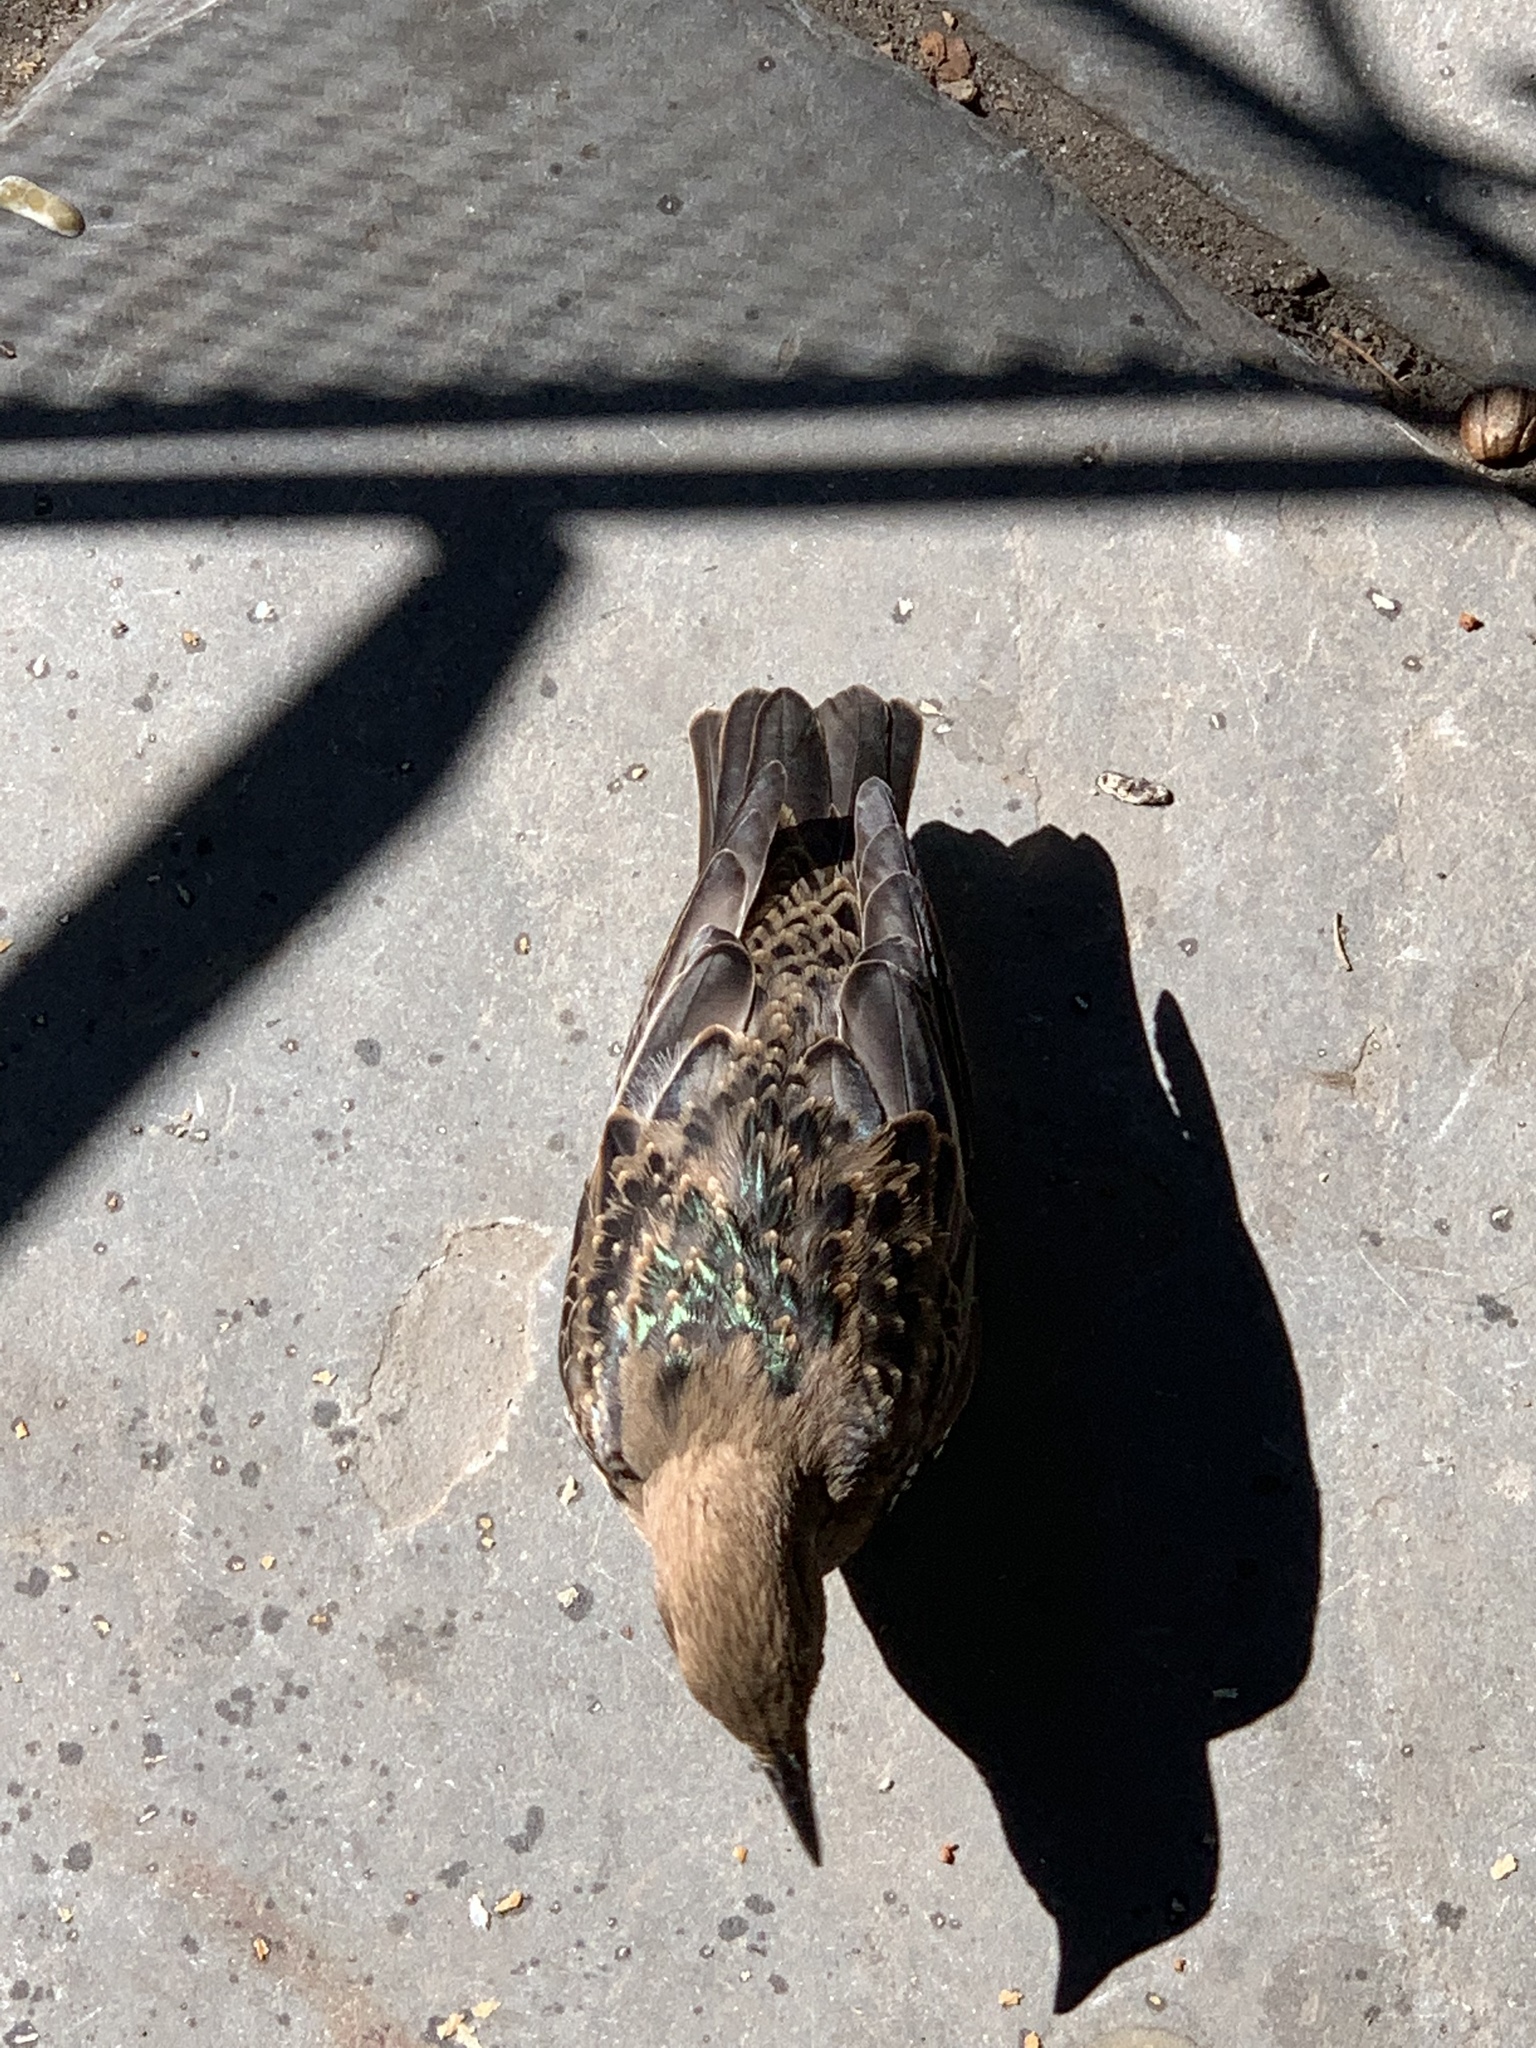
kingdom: Animalia
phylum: Chordata
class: Aves
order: Passeriformes
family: Sturnidae
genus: Sturnus
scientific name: Sturnus vulgaris
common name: Common starling
